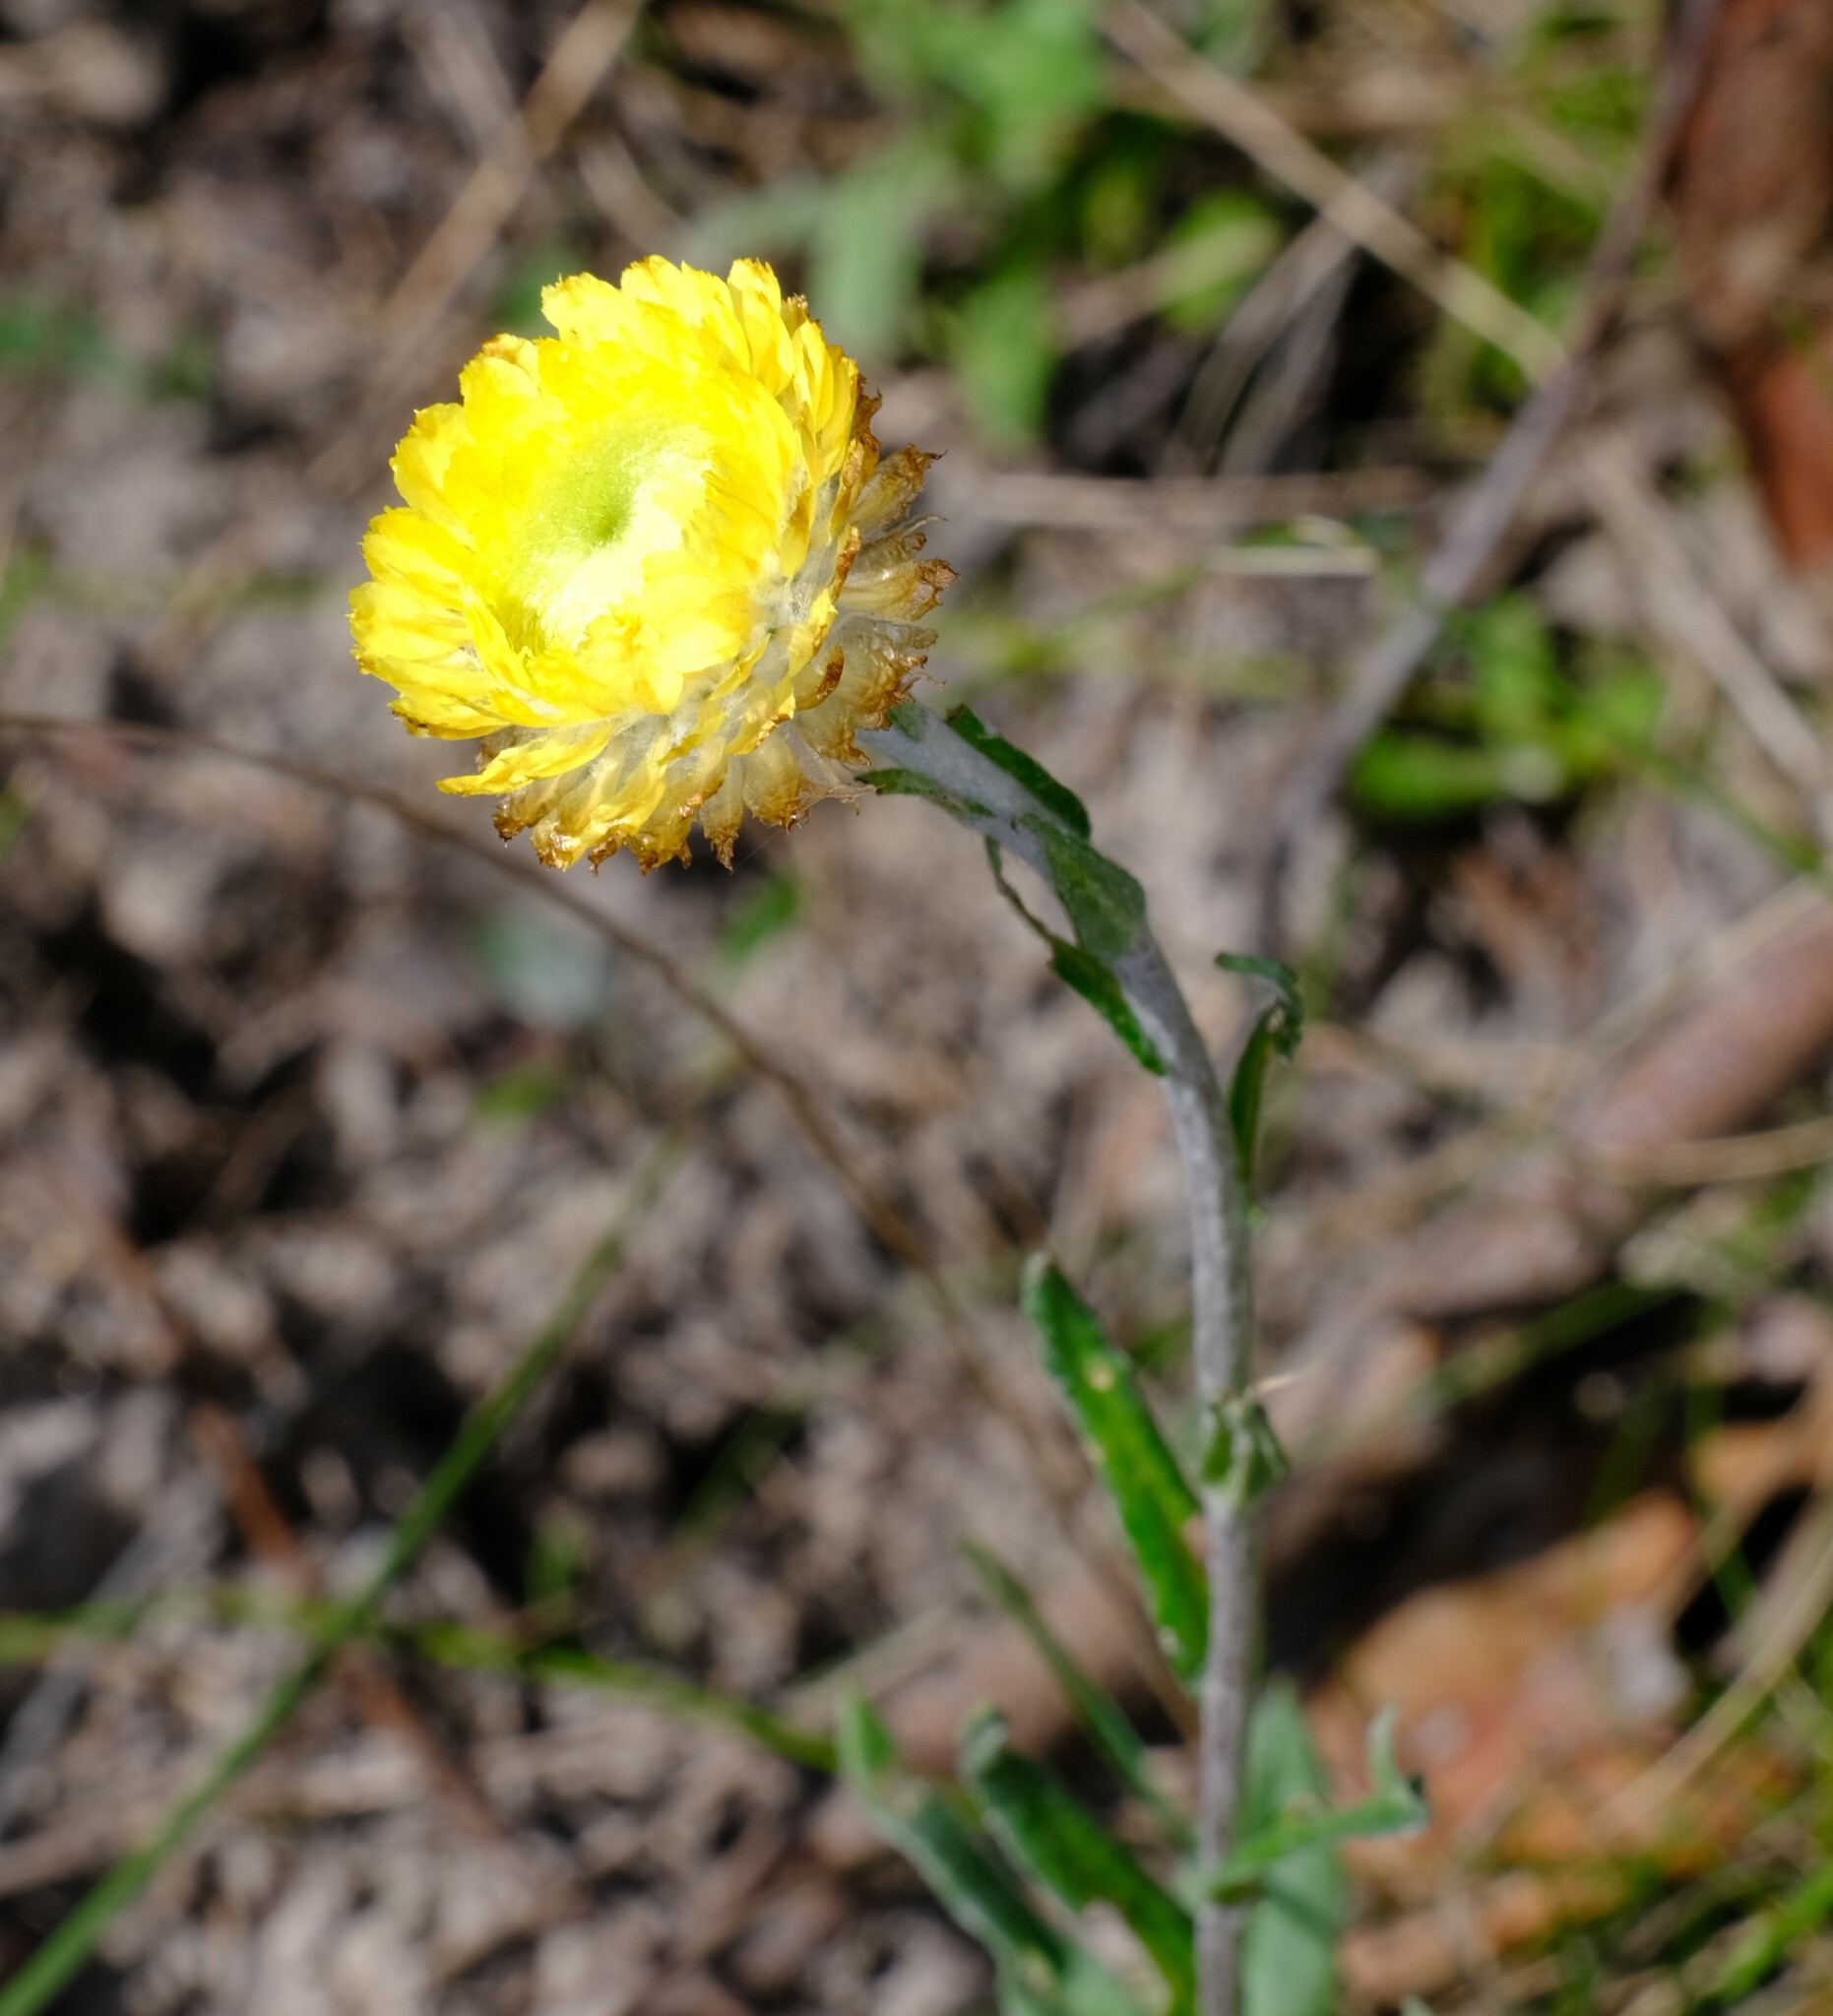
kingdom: Plantae
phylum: Tracheophyta
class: Magnoliopsida
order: Asterales
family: Asteraceae
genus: Coronidium
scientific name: Coronidium scorpioides
